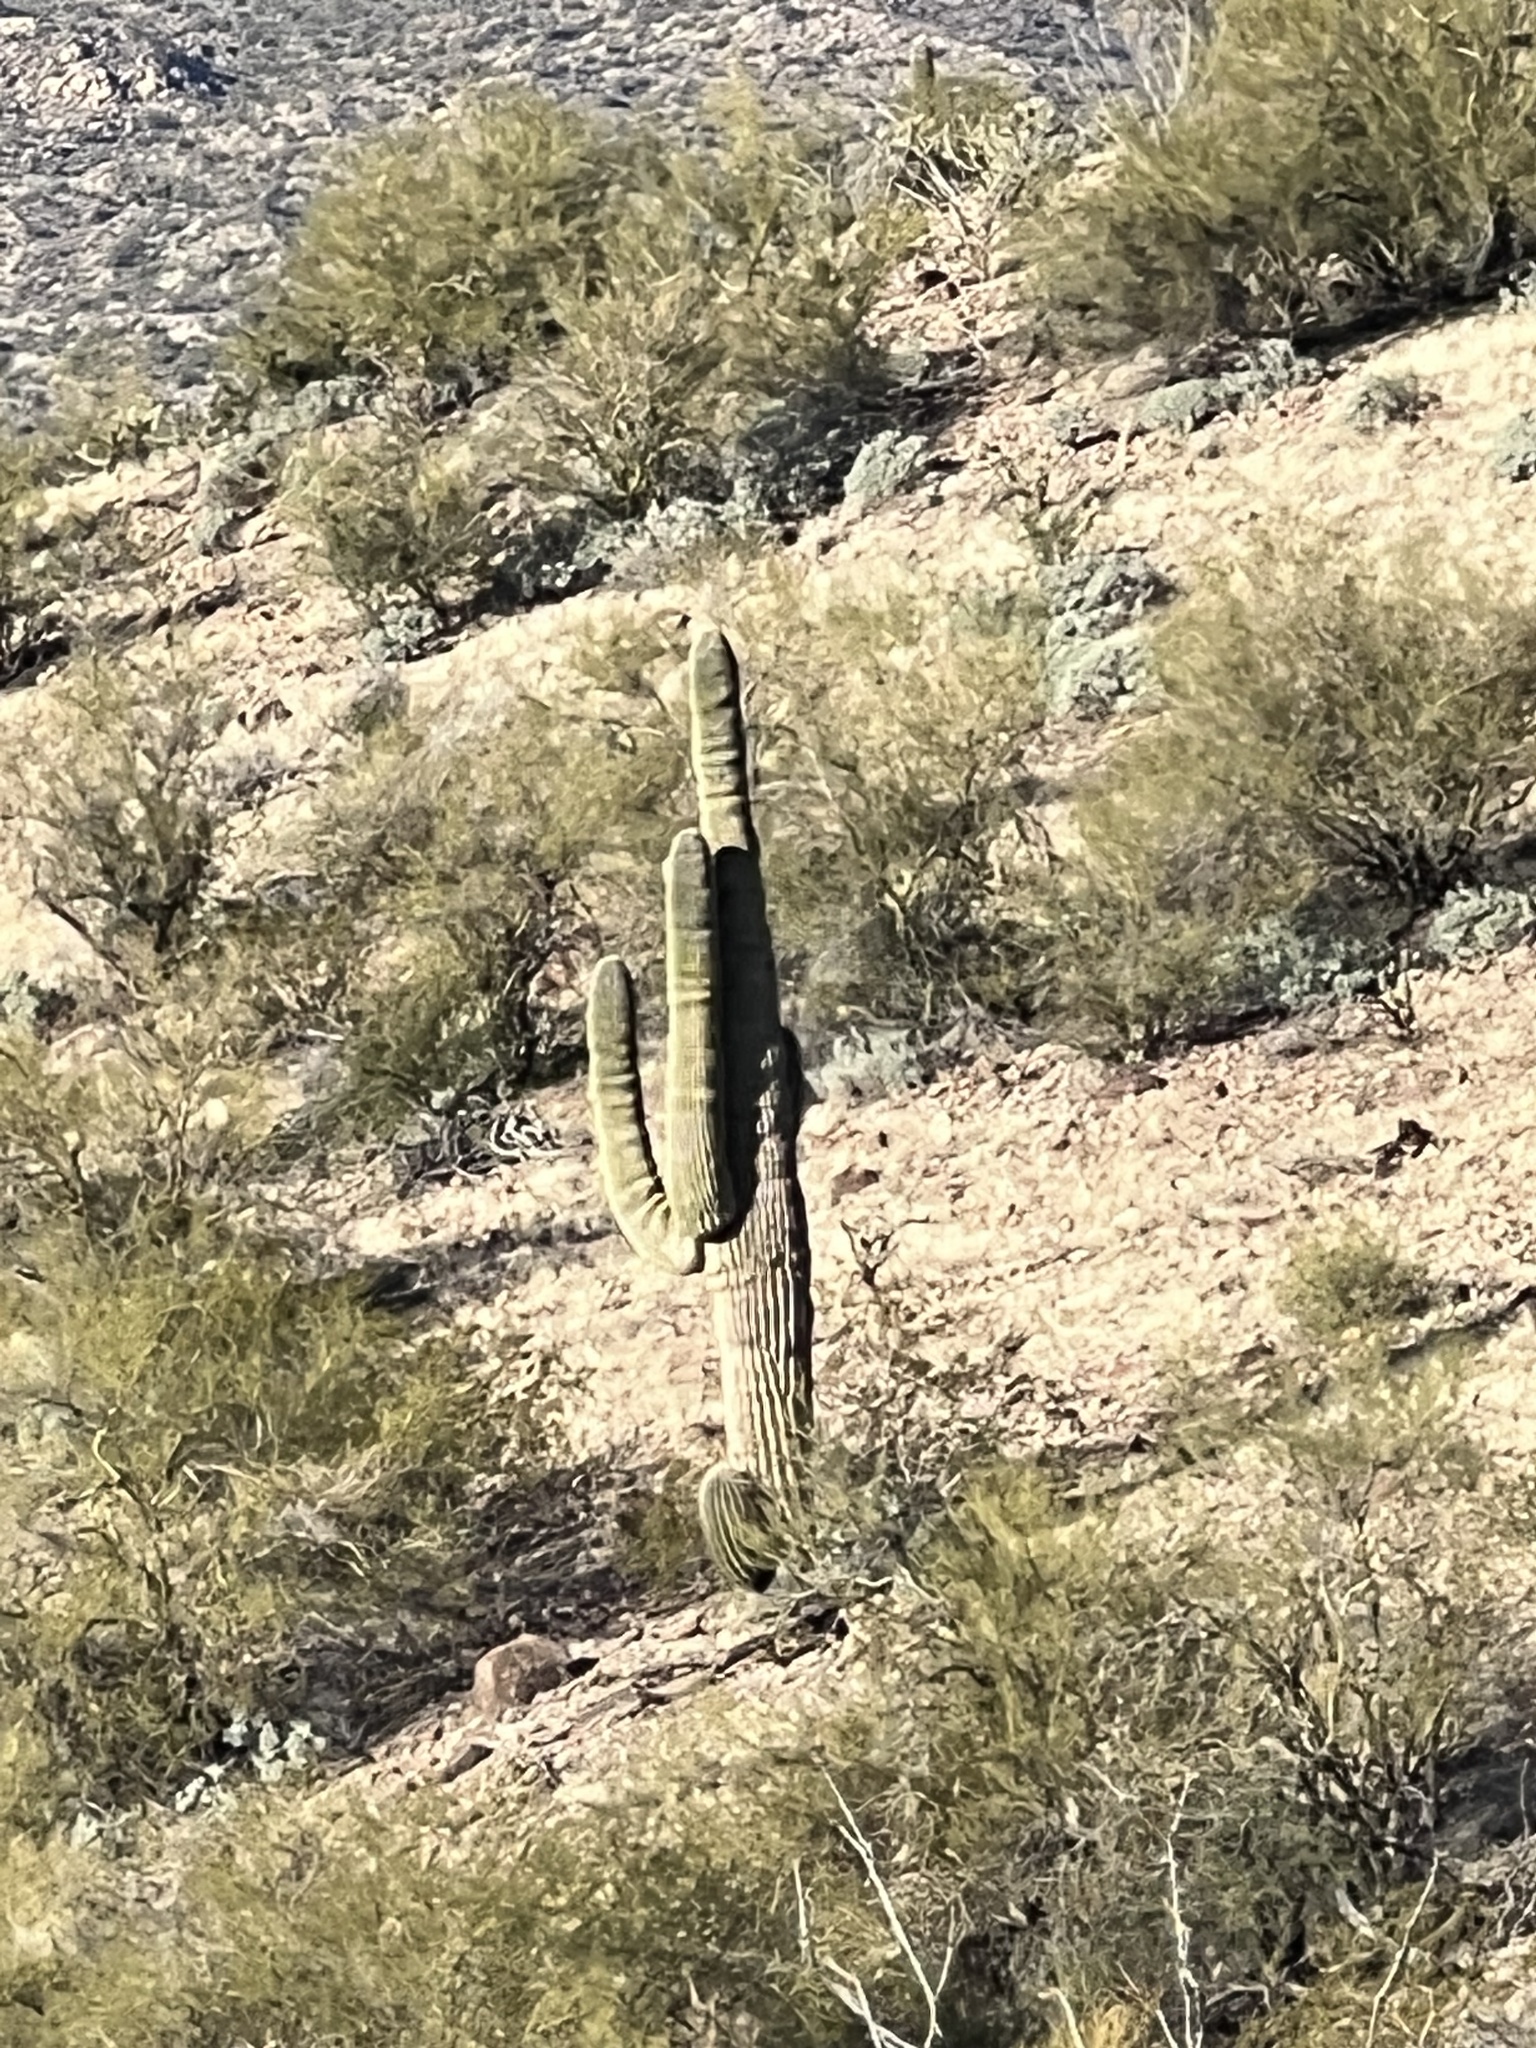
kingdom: Plantae
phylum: Tracheophyta
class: Magnoliopsida
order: Caryophyllales
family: Cactaceae
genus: Carnegiea
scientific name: Carnegiea gigantea
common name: Saguaro
